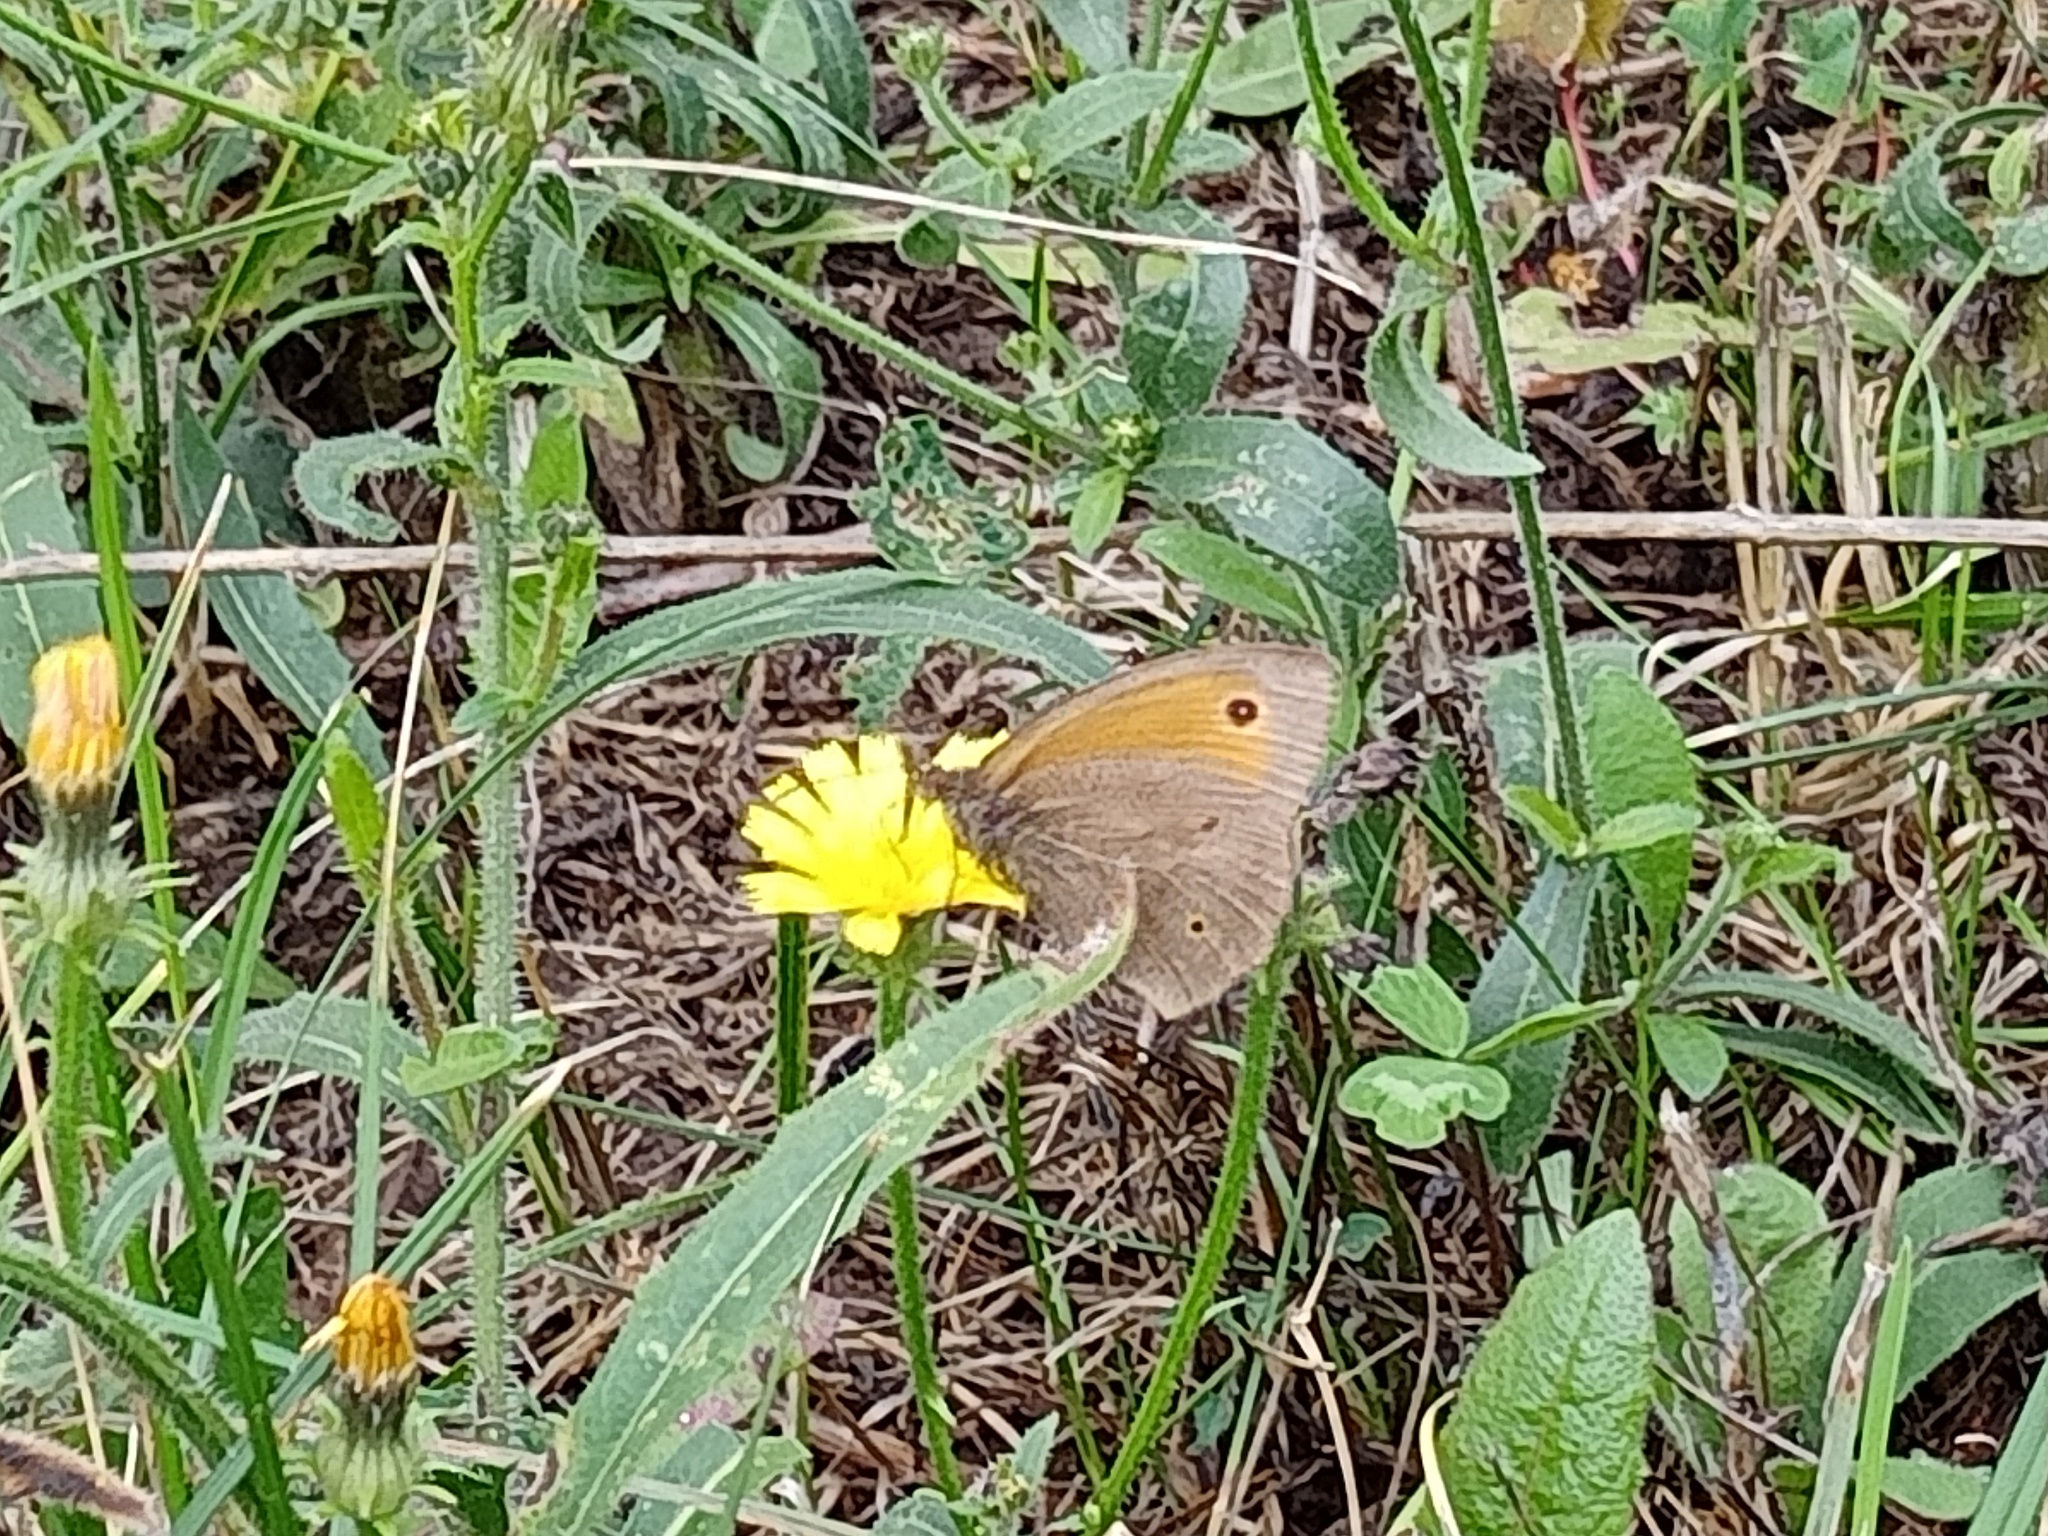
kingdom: Animalia
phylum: Arthropoda
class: Insecta
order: Lepidoptera
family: Nymphalidae
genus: Maniola
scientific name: Maniola jurtina
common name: Meadow brown
